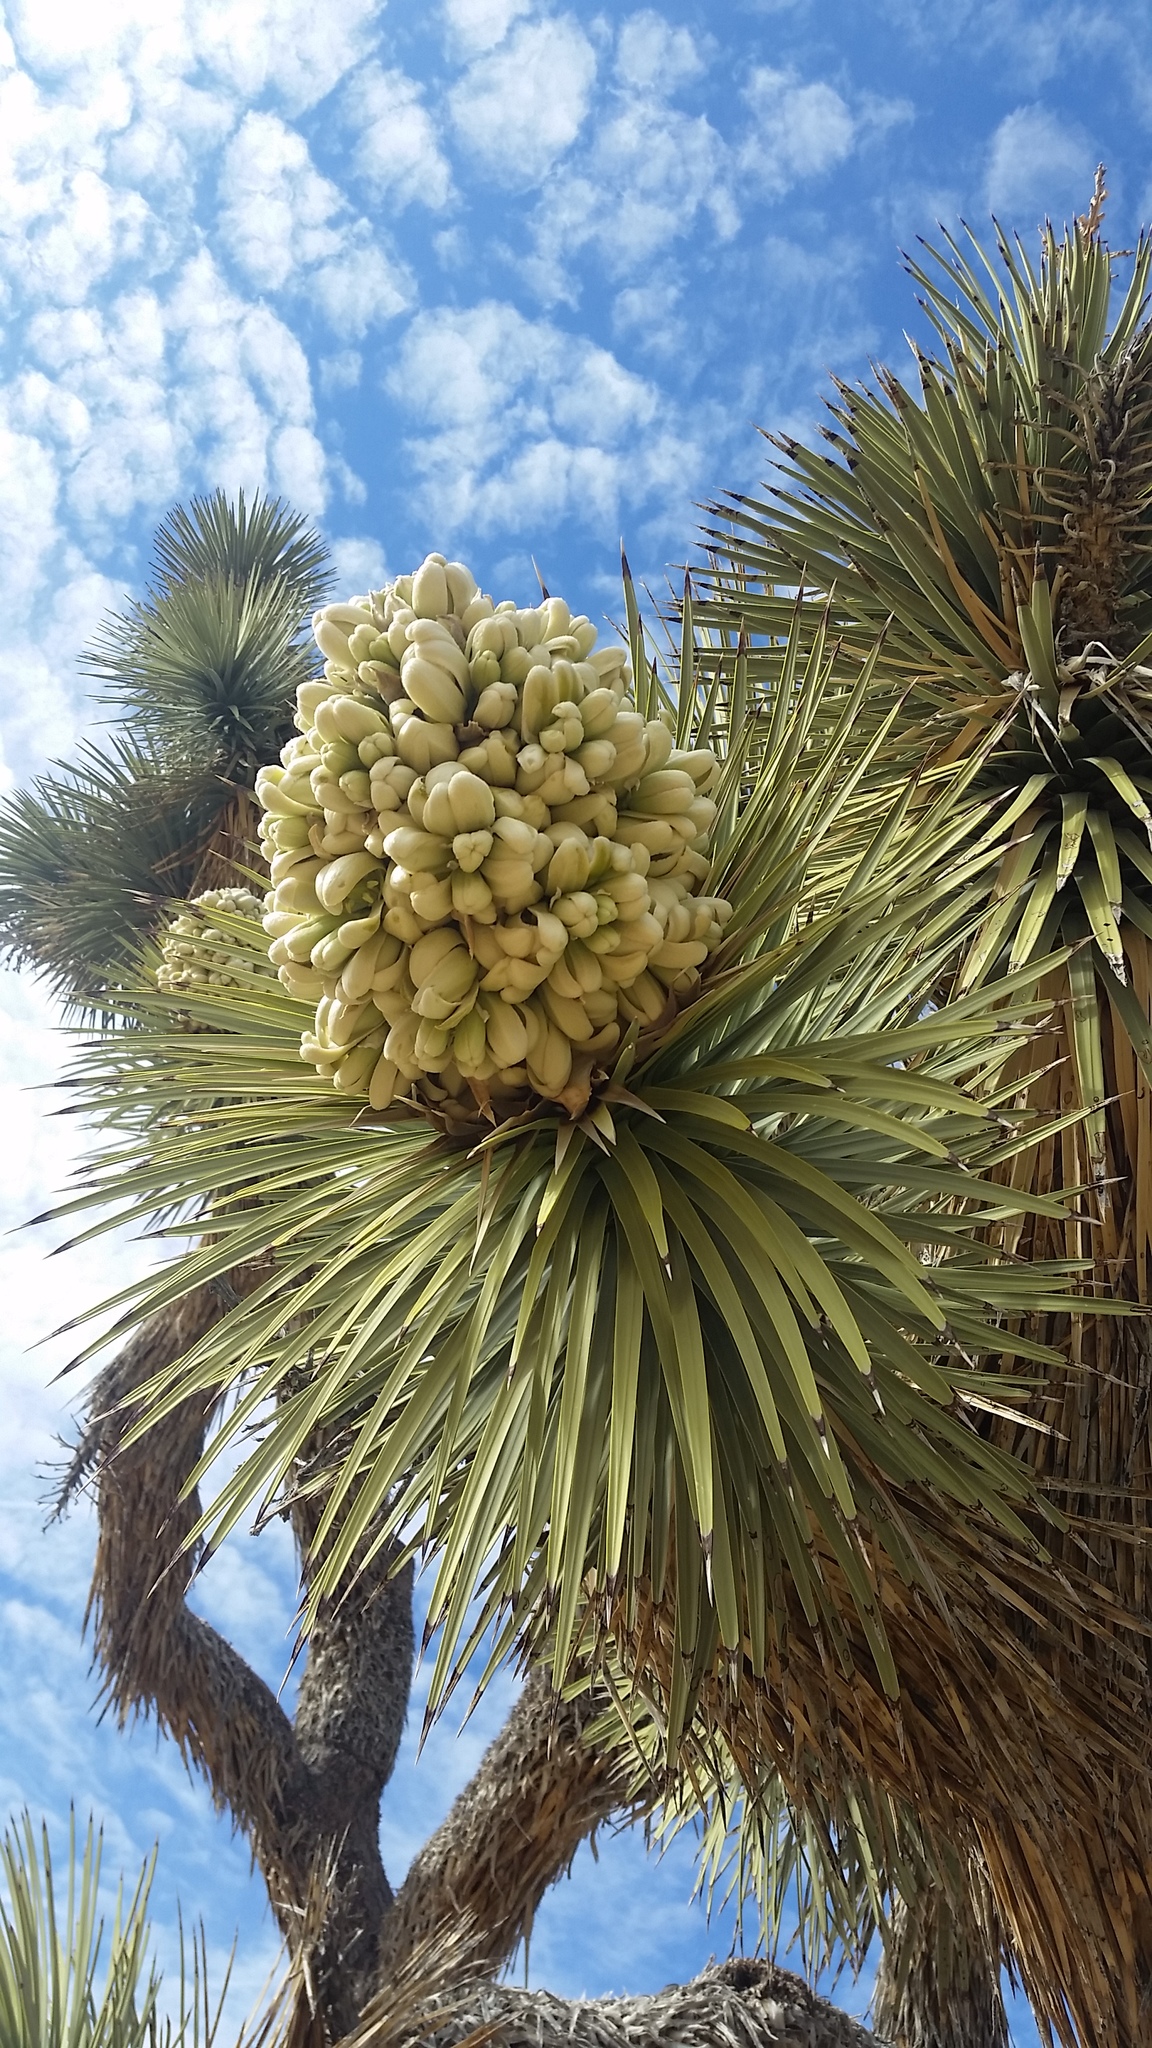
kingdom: Plantae
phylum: Tracheophyta
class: Liliopsida
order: Asparagales
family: Asparagaceae
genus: Yucca
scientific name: Yucca brevifolia
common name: Joshua tree
